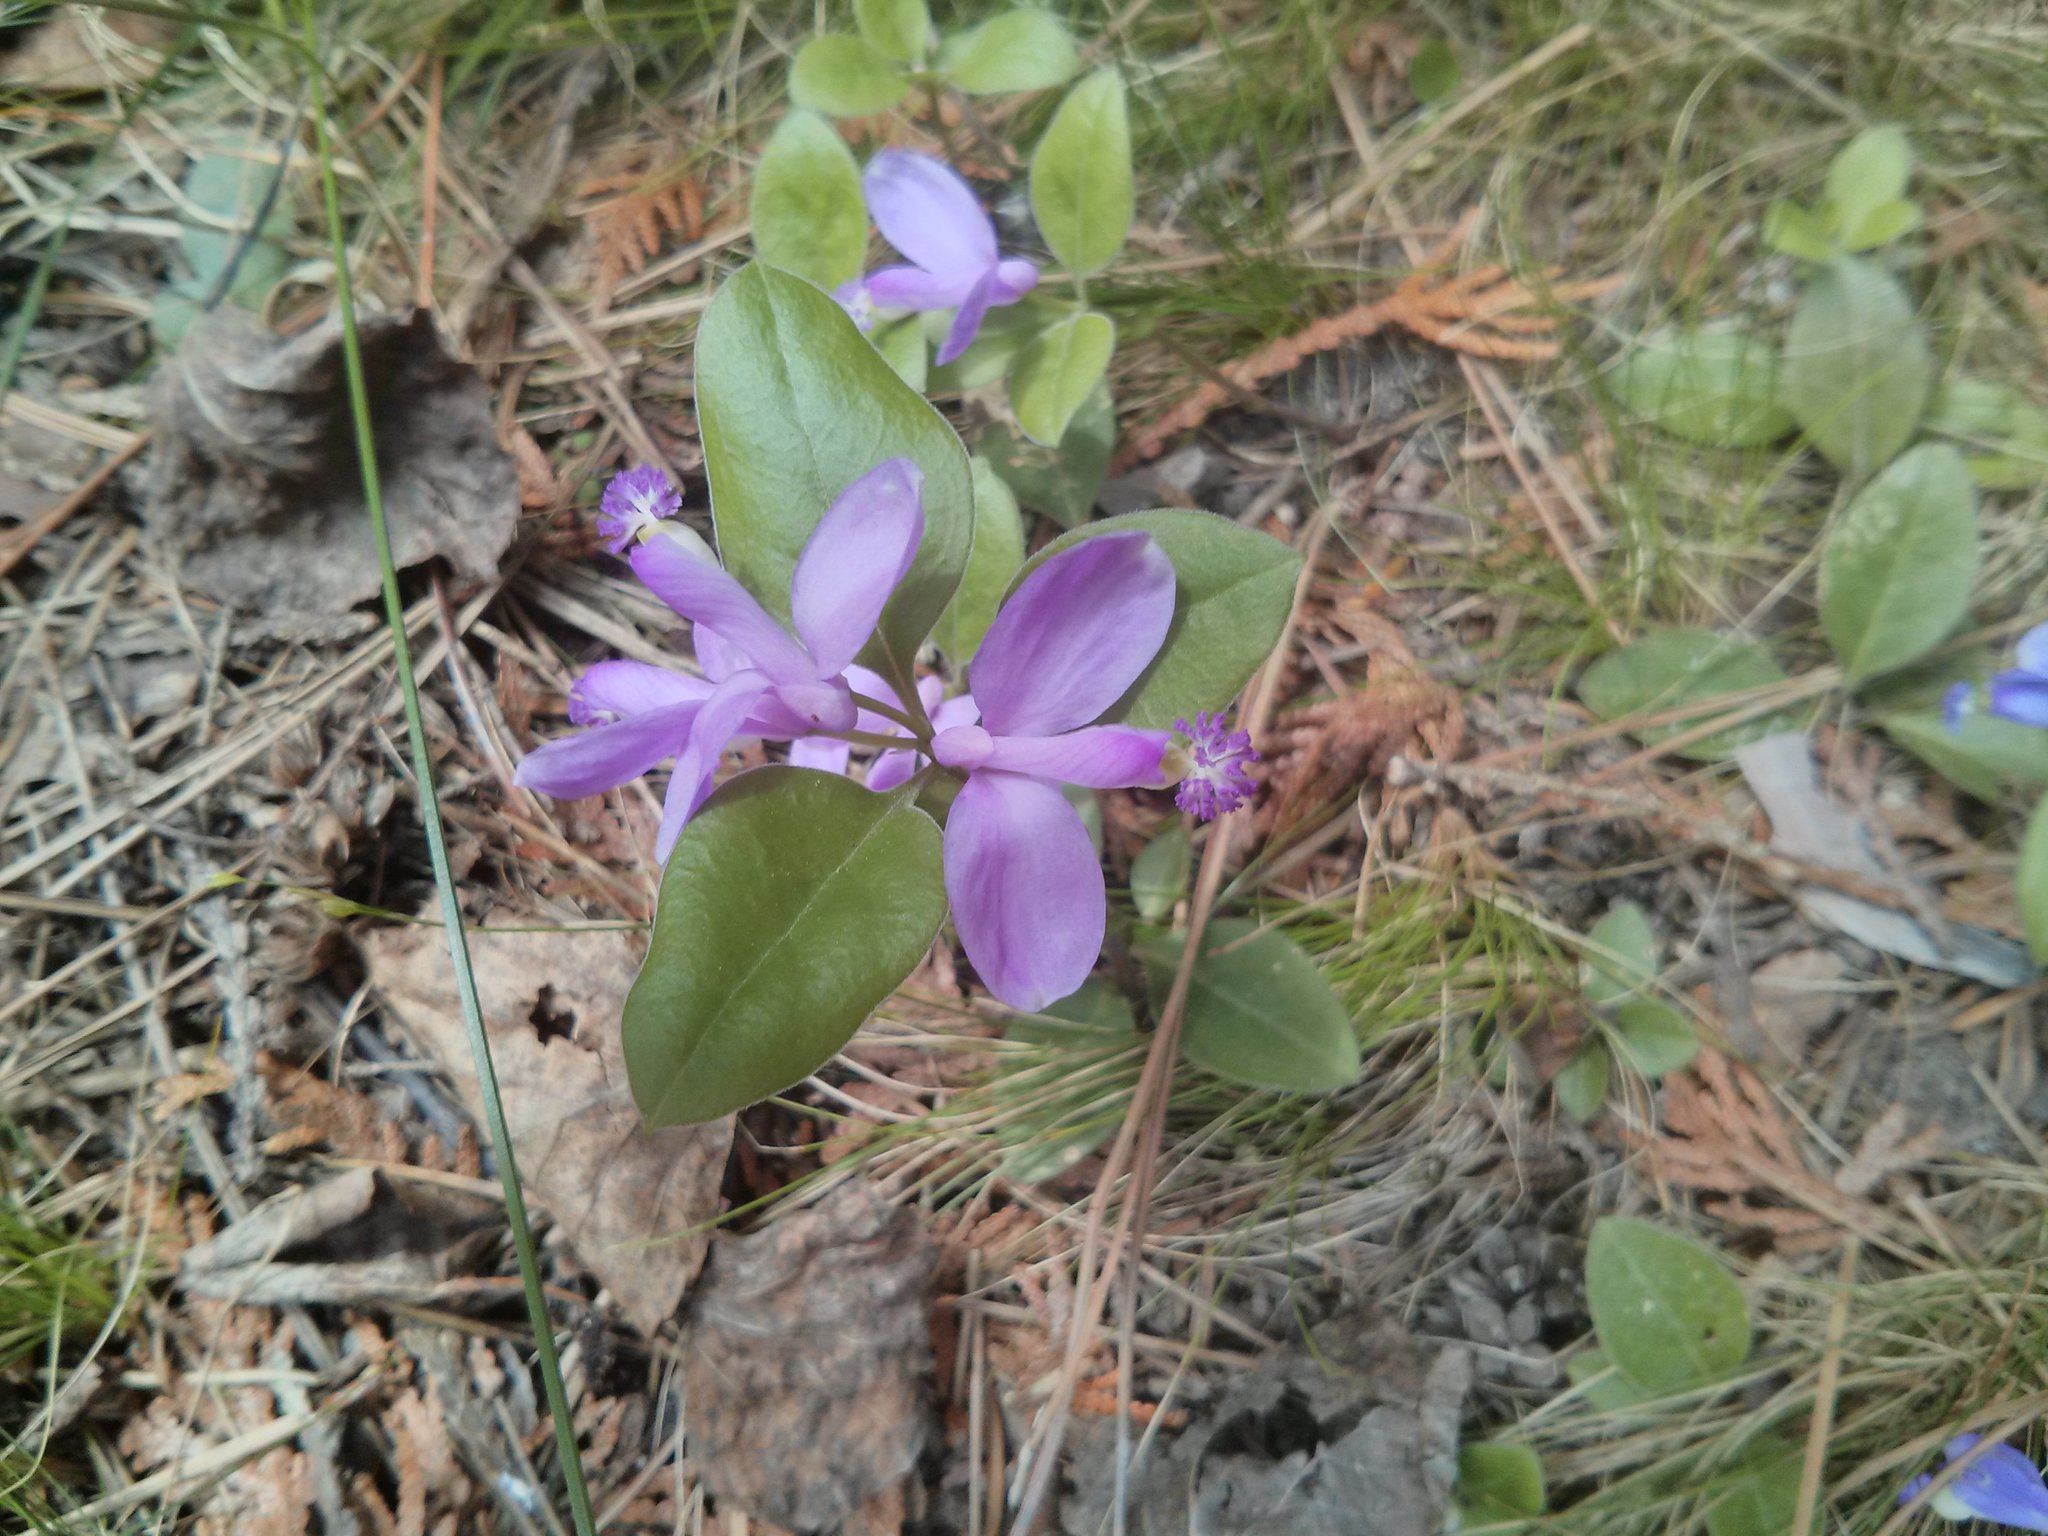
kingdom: Plantae
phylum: Tracheophyta
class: Magnoliopsida
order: Fabales
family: Polygalaceae
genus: Polygaloides
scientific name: Polygaloides paucifolia
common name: Bird-on-the-wing
